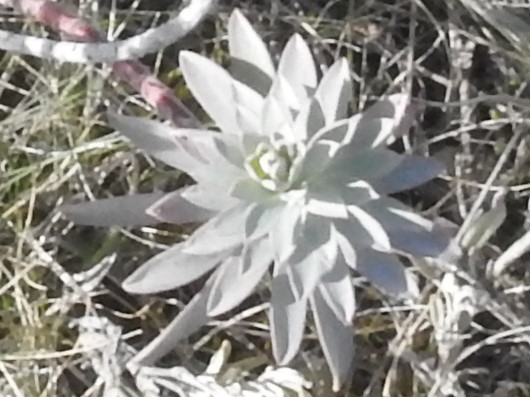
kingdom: Plantae
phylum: Tracheophyta
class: Magnoliopsida
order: Malpighiales
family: Euphorbiaceae
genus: Euphorbia
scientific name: Euphorbia nicaeensis
